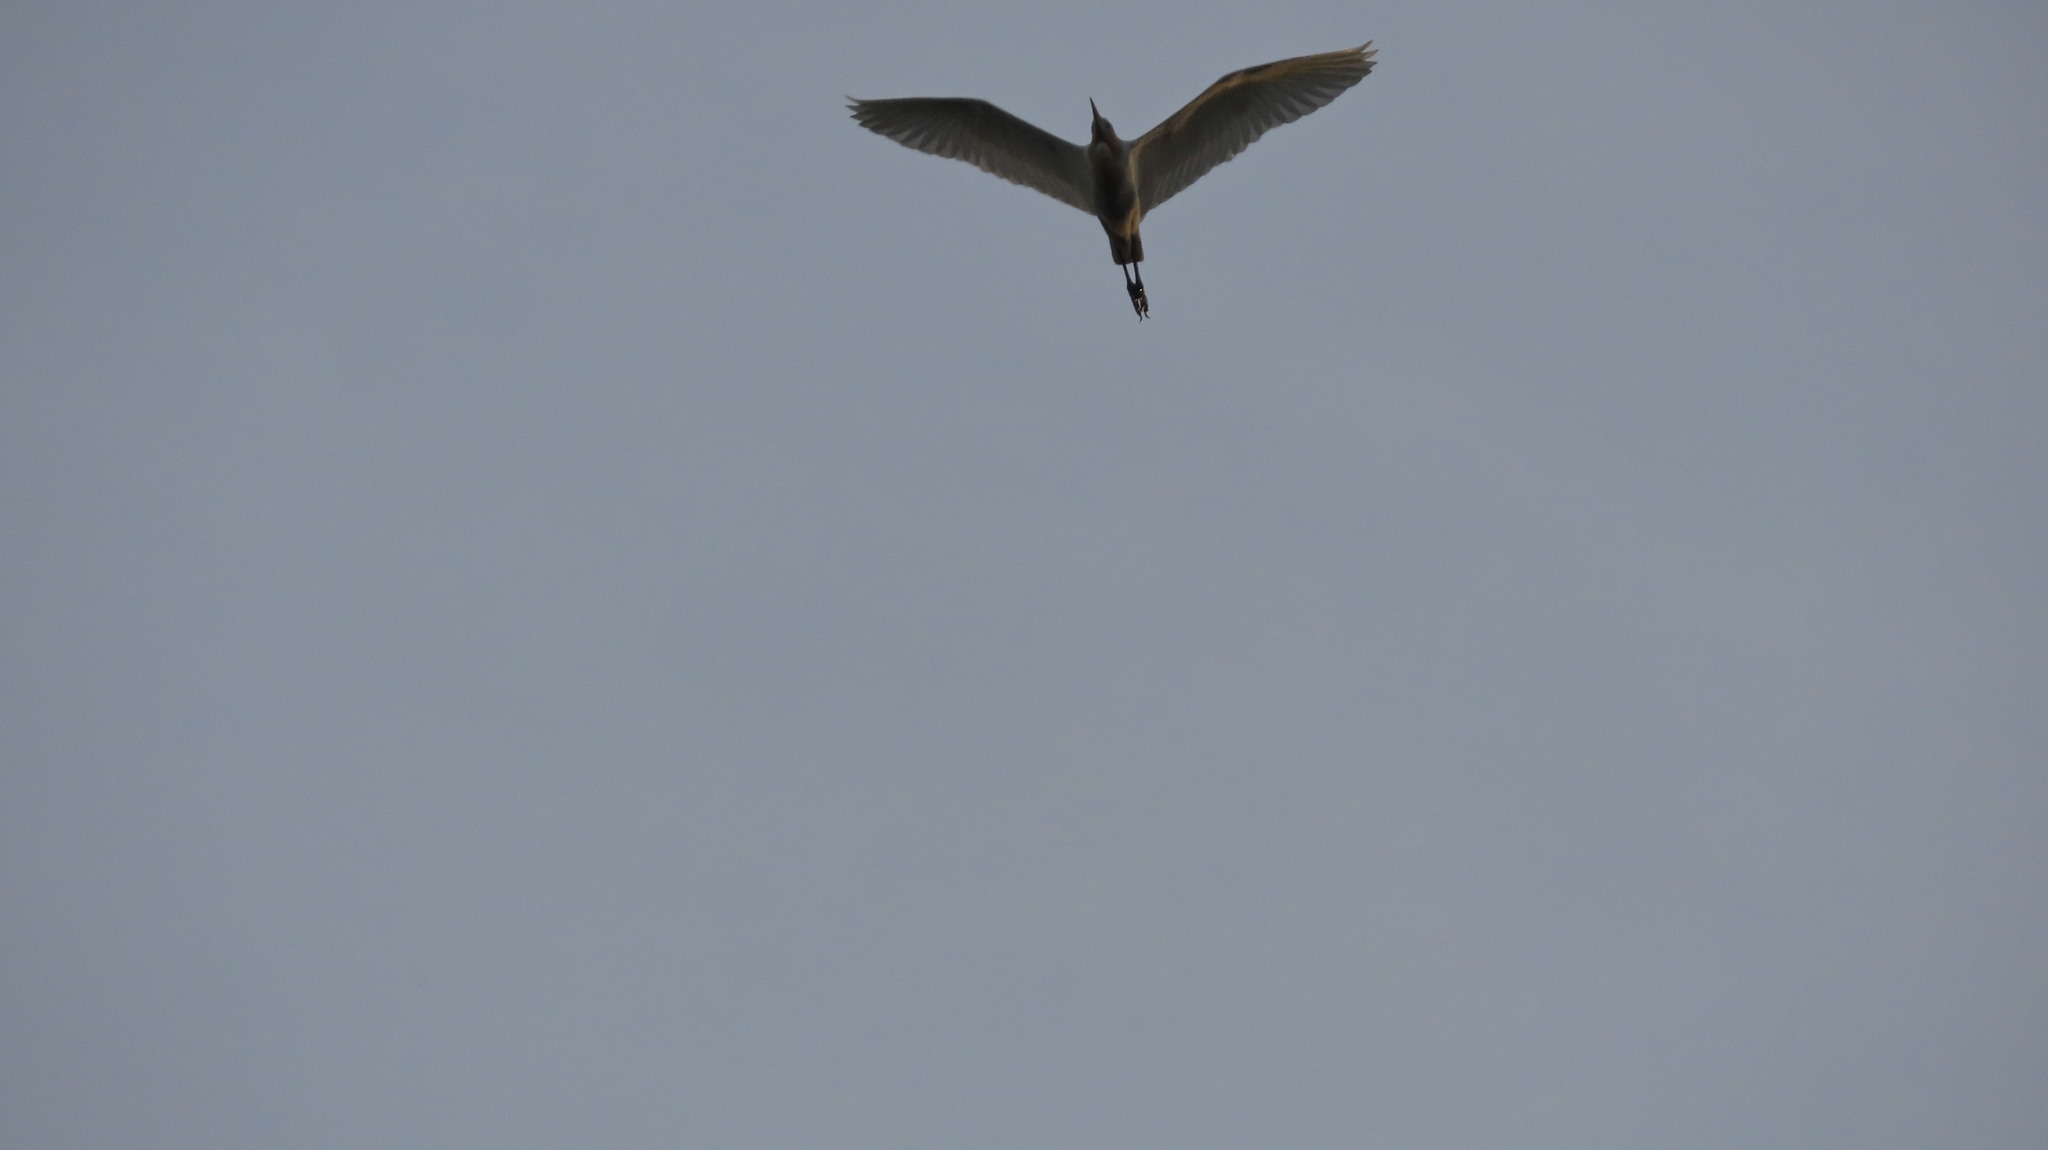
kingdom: Animalia
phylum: Chordata
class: Aves
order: Pelecaniformes
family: Ardeidae
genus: Bubulcus
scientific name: Bubulcus coromandus
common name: Eastern cattle egret
